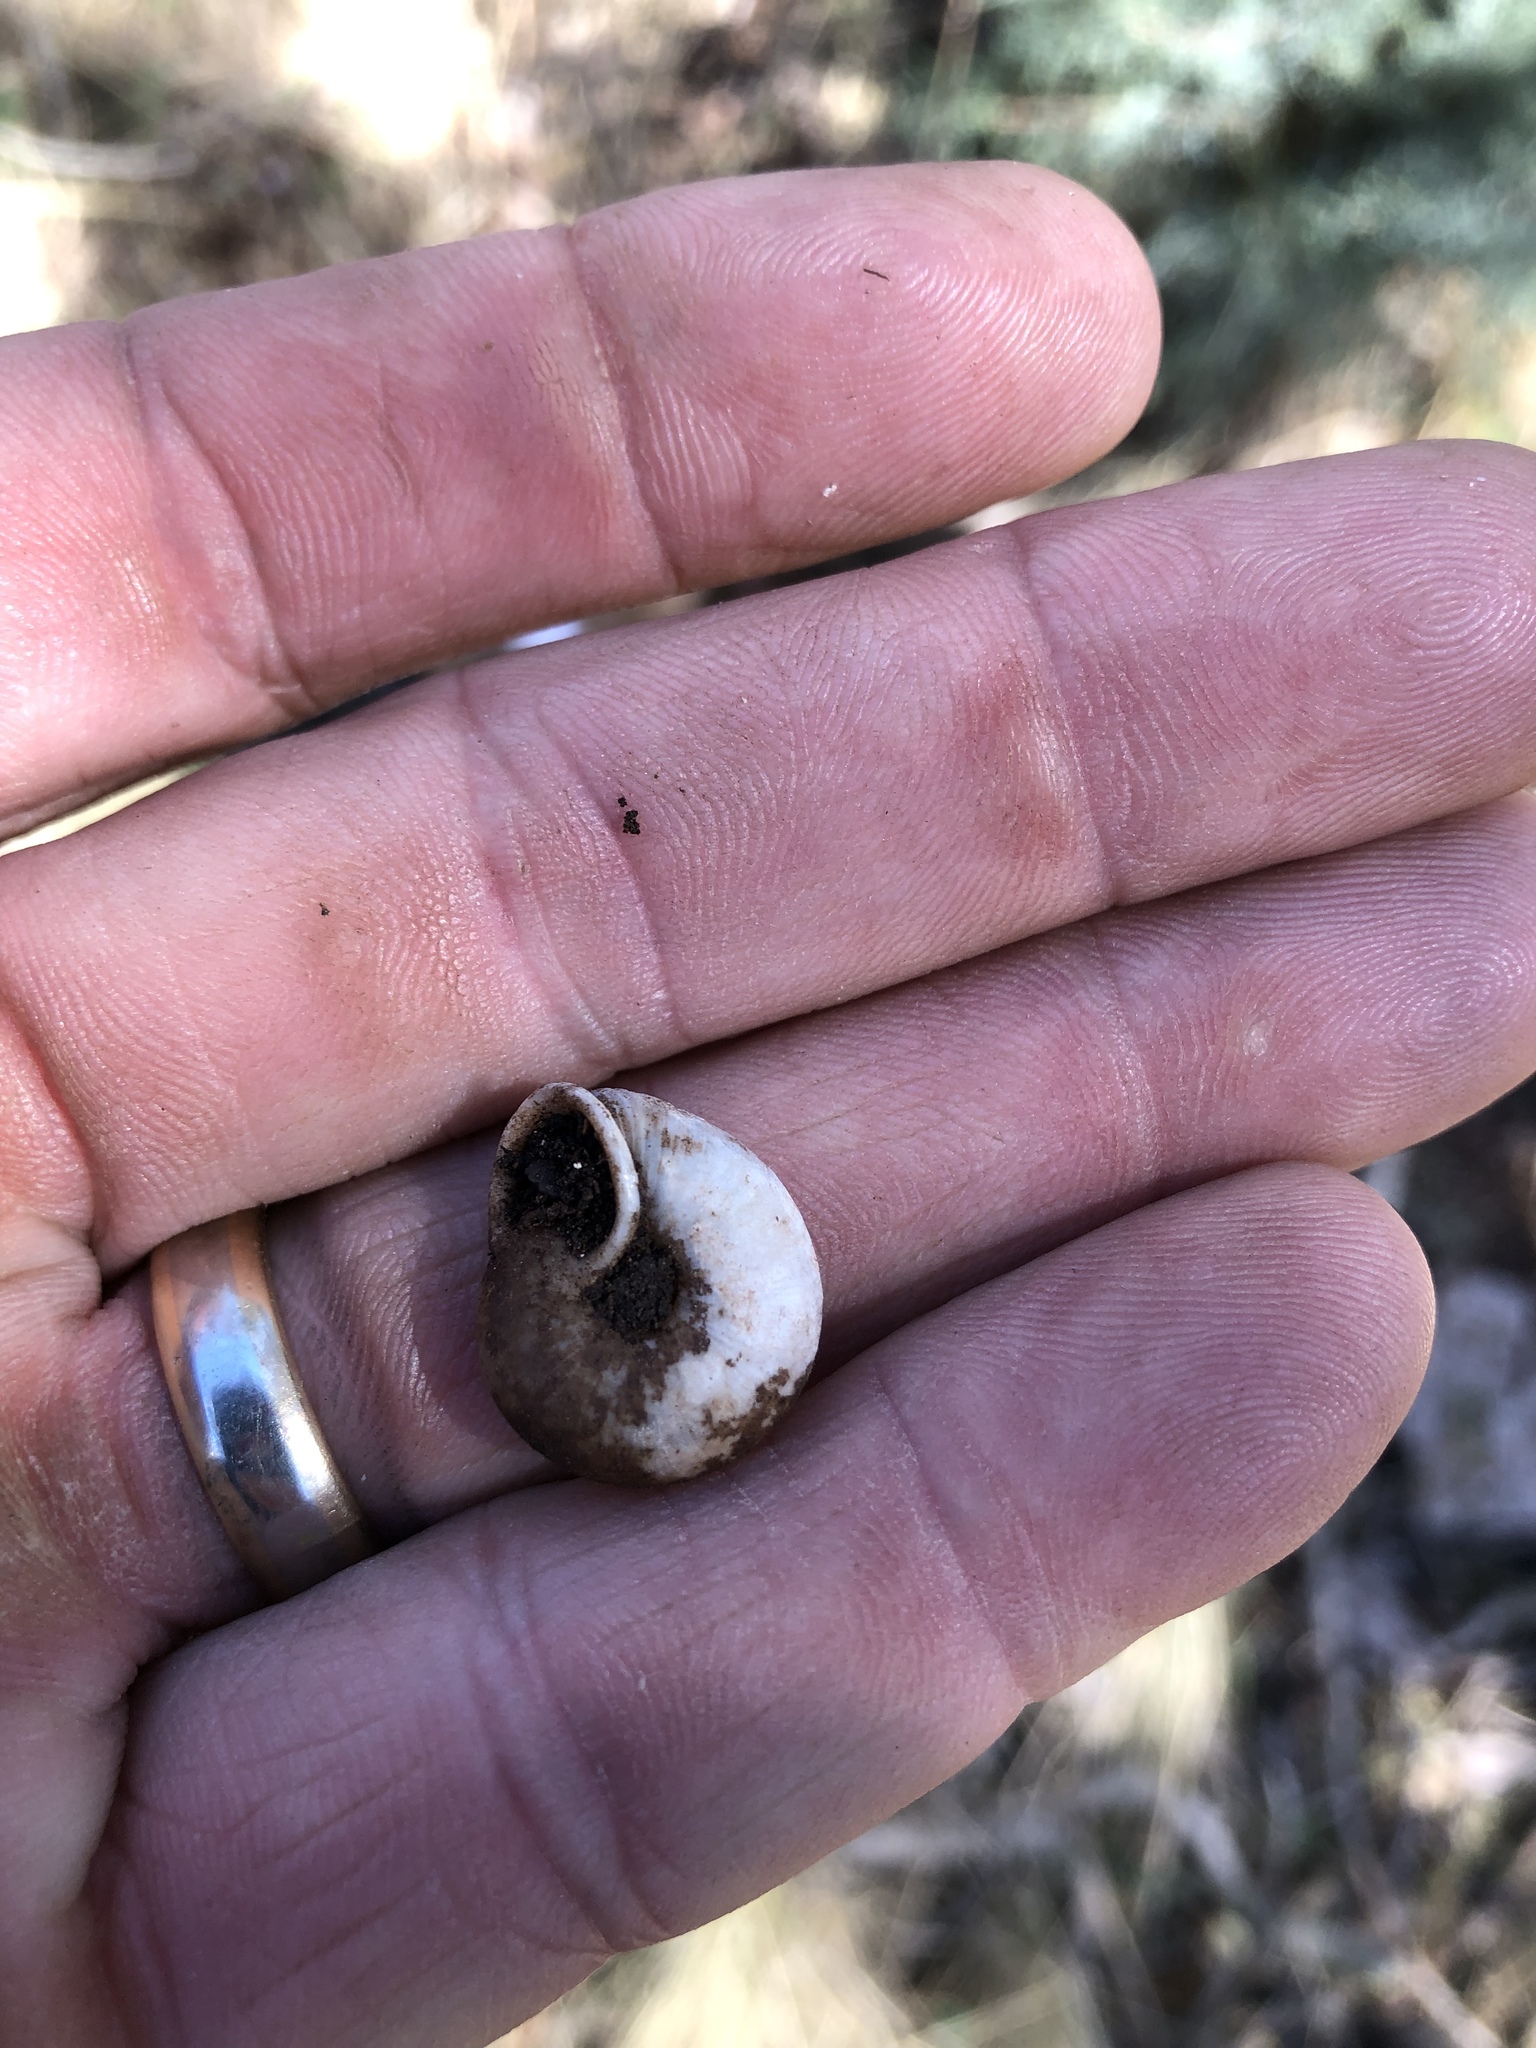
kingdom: Animalia
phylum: Mollusca
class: Gastropoda
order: Stylommatophora
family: Polygyridae
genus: Ashmunella
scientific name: Ashmunella rhyssa
